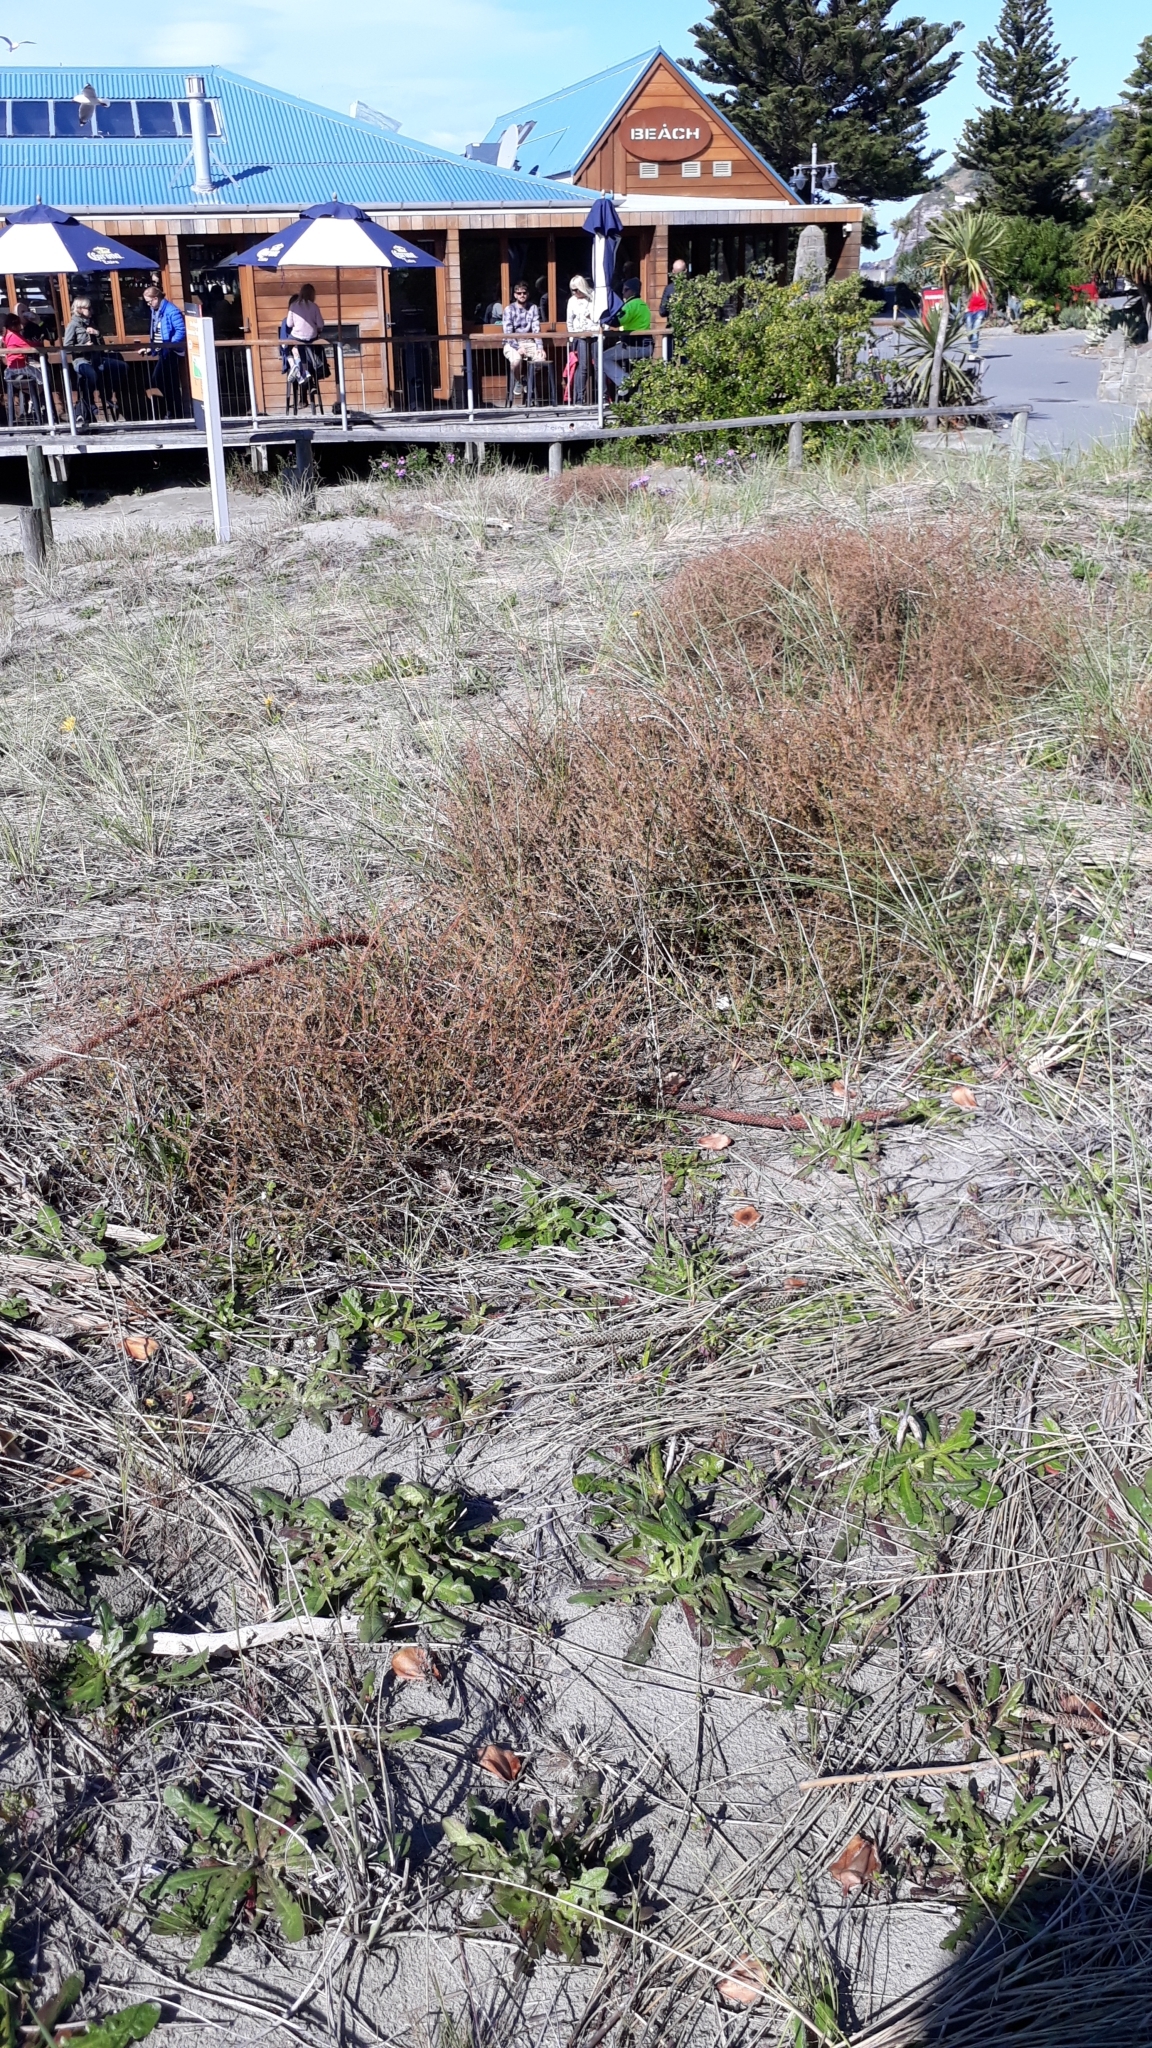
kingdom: Plantae
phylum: Tracheophyta
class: Magnoliopsida
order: Gentianales
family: Rubiaceae
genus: Coprosma
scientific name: Coprosma acerosa
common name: Sand coprosma
